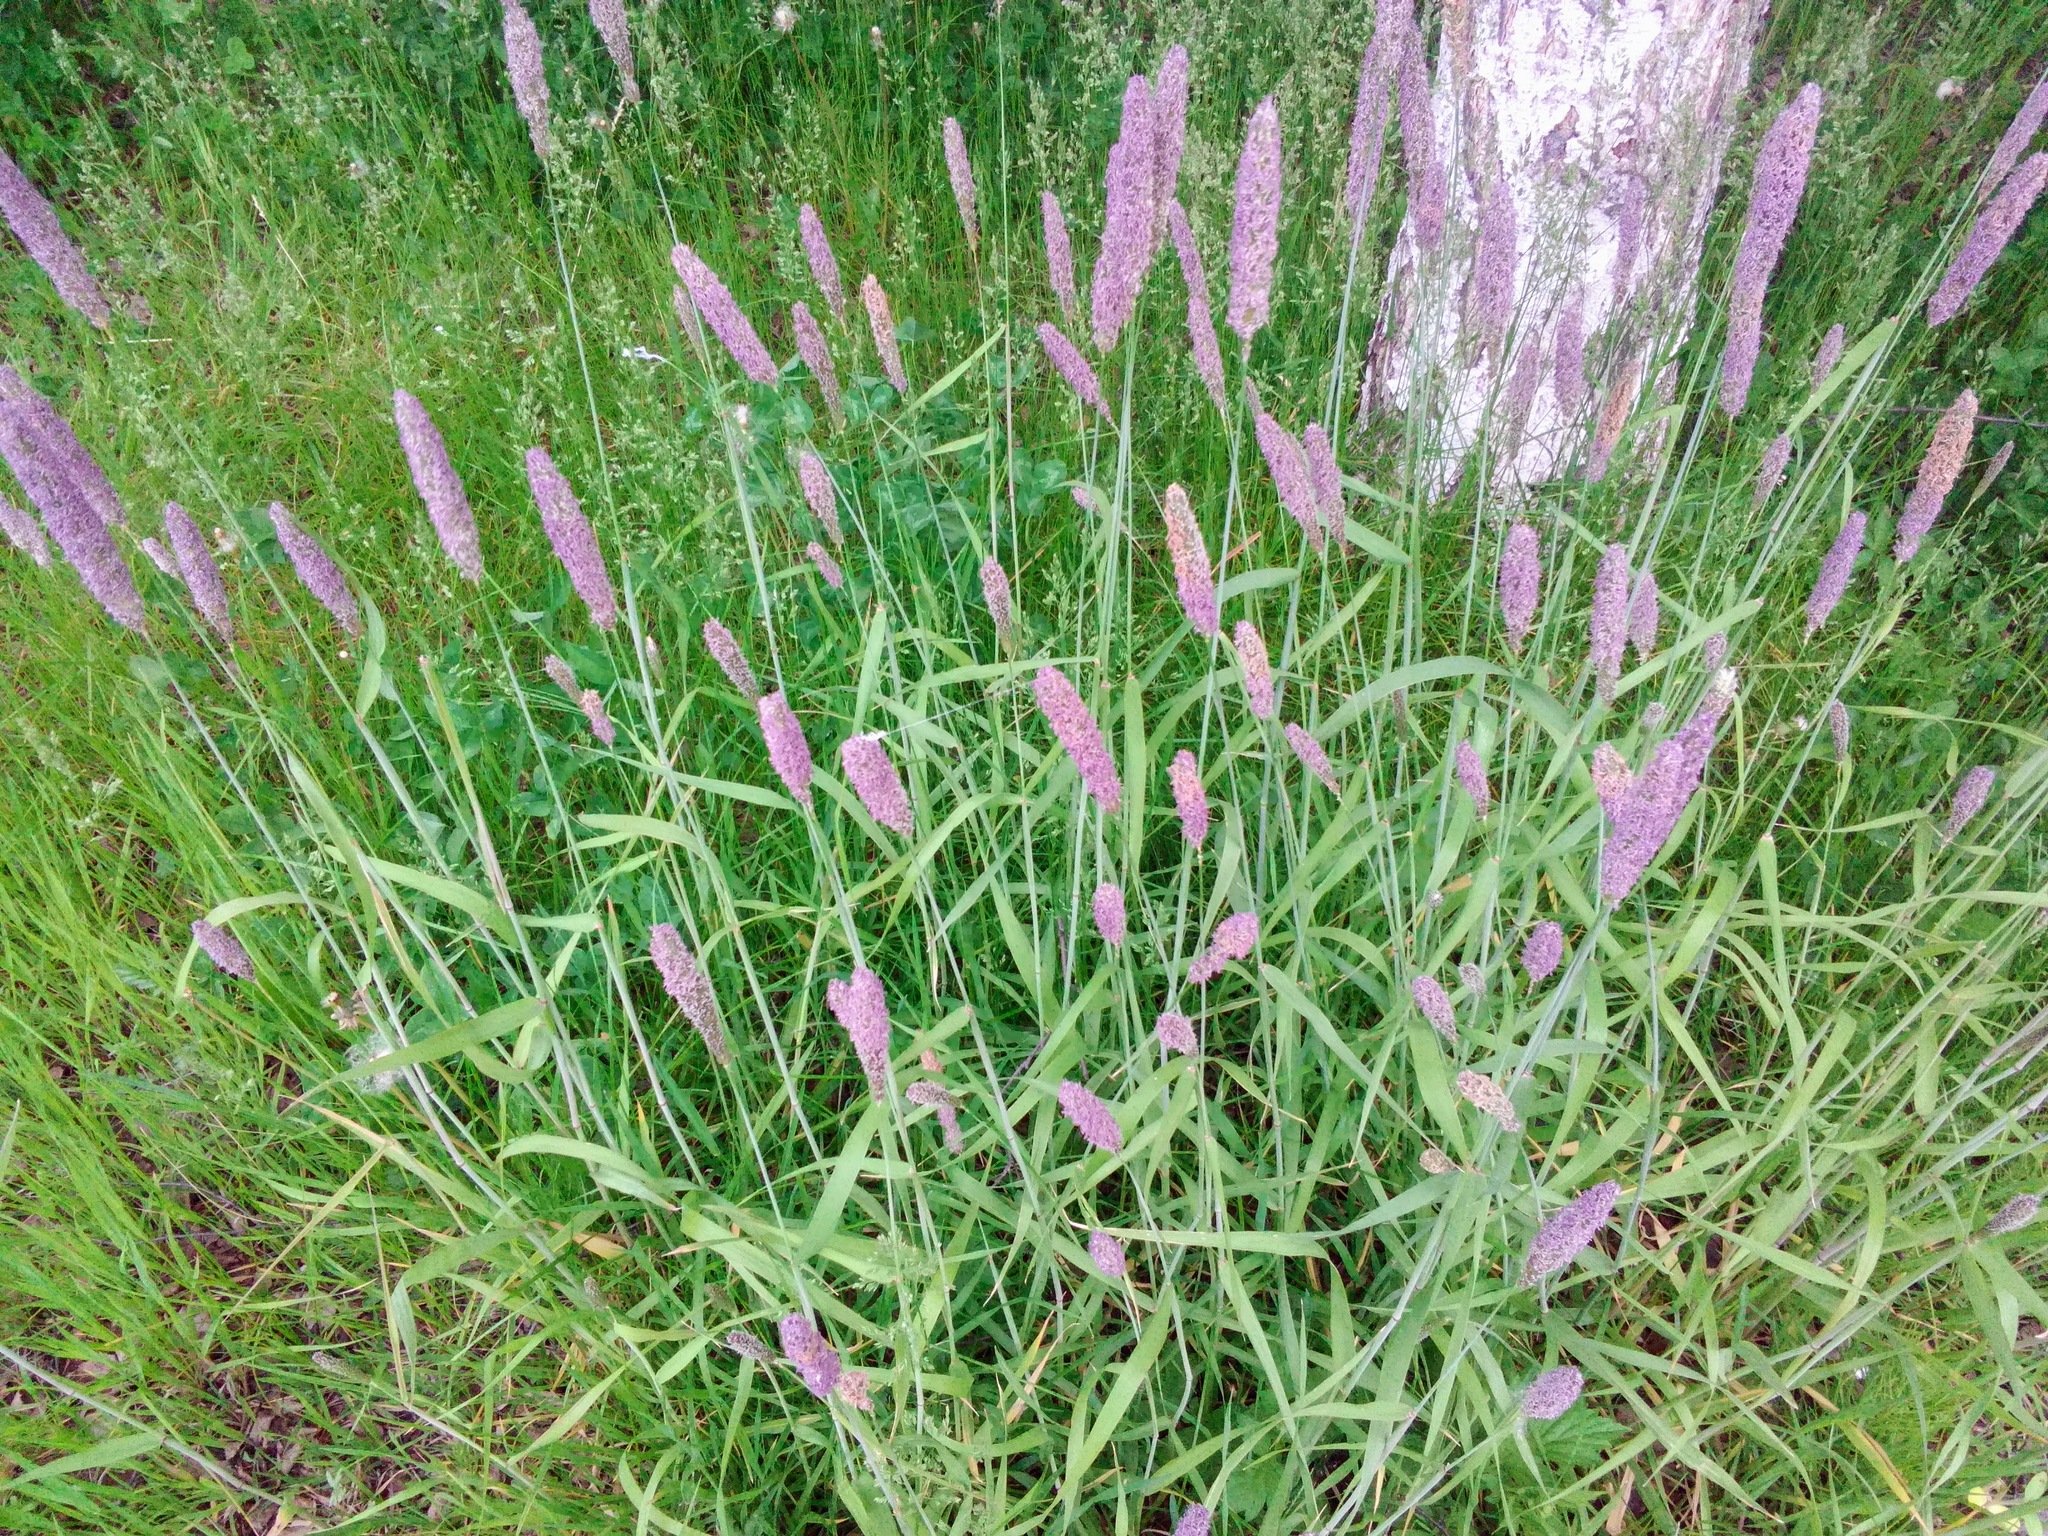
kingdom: Plantae
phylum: Tracheophyta
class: Liliopsida
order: Poales
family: Poaceae
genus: Phleum
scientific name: Phleum pratense
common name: Timothy grass
